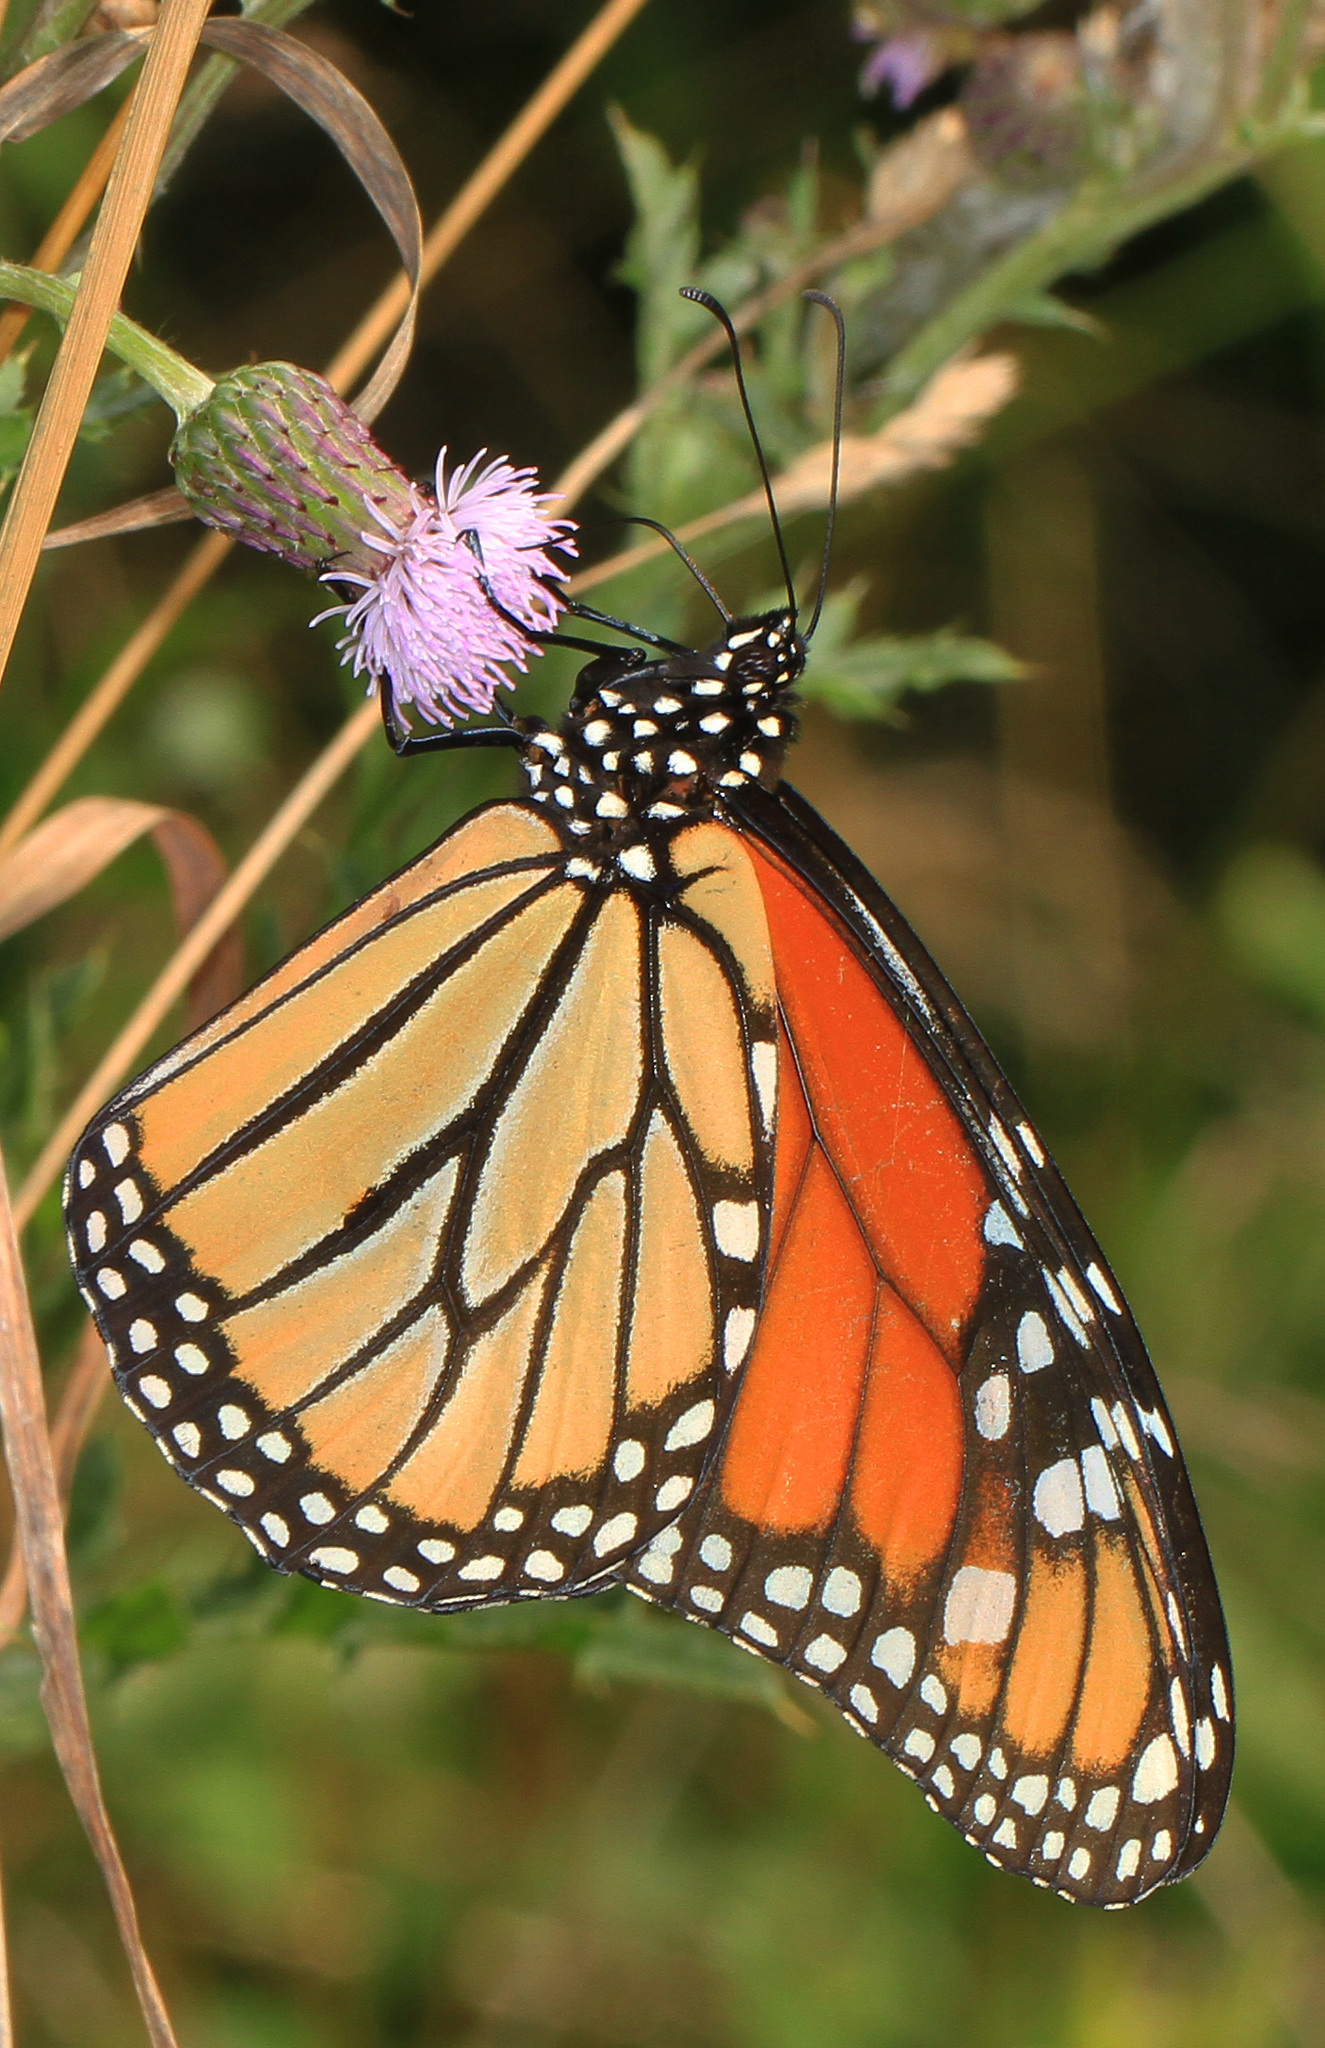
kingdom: Animalia
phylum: Arthropoda
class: Insecta
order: Lepidoptera
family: Nymphalidae
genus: Danaus
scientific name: Danaus plexippus
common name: Monarch
